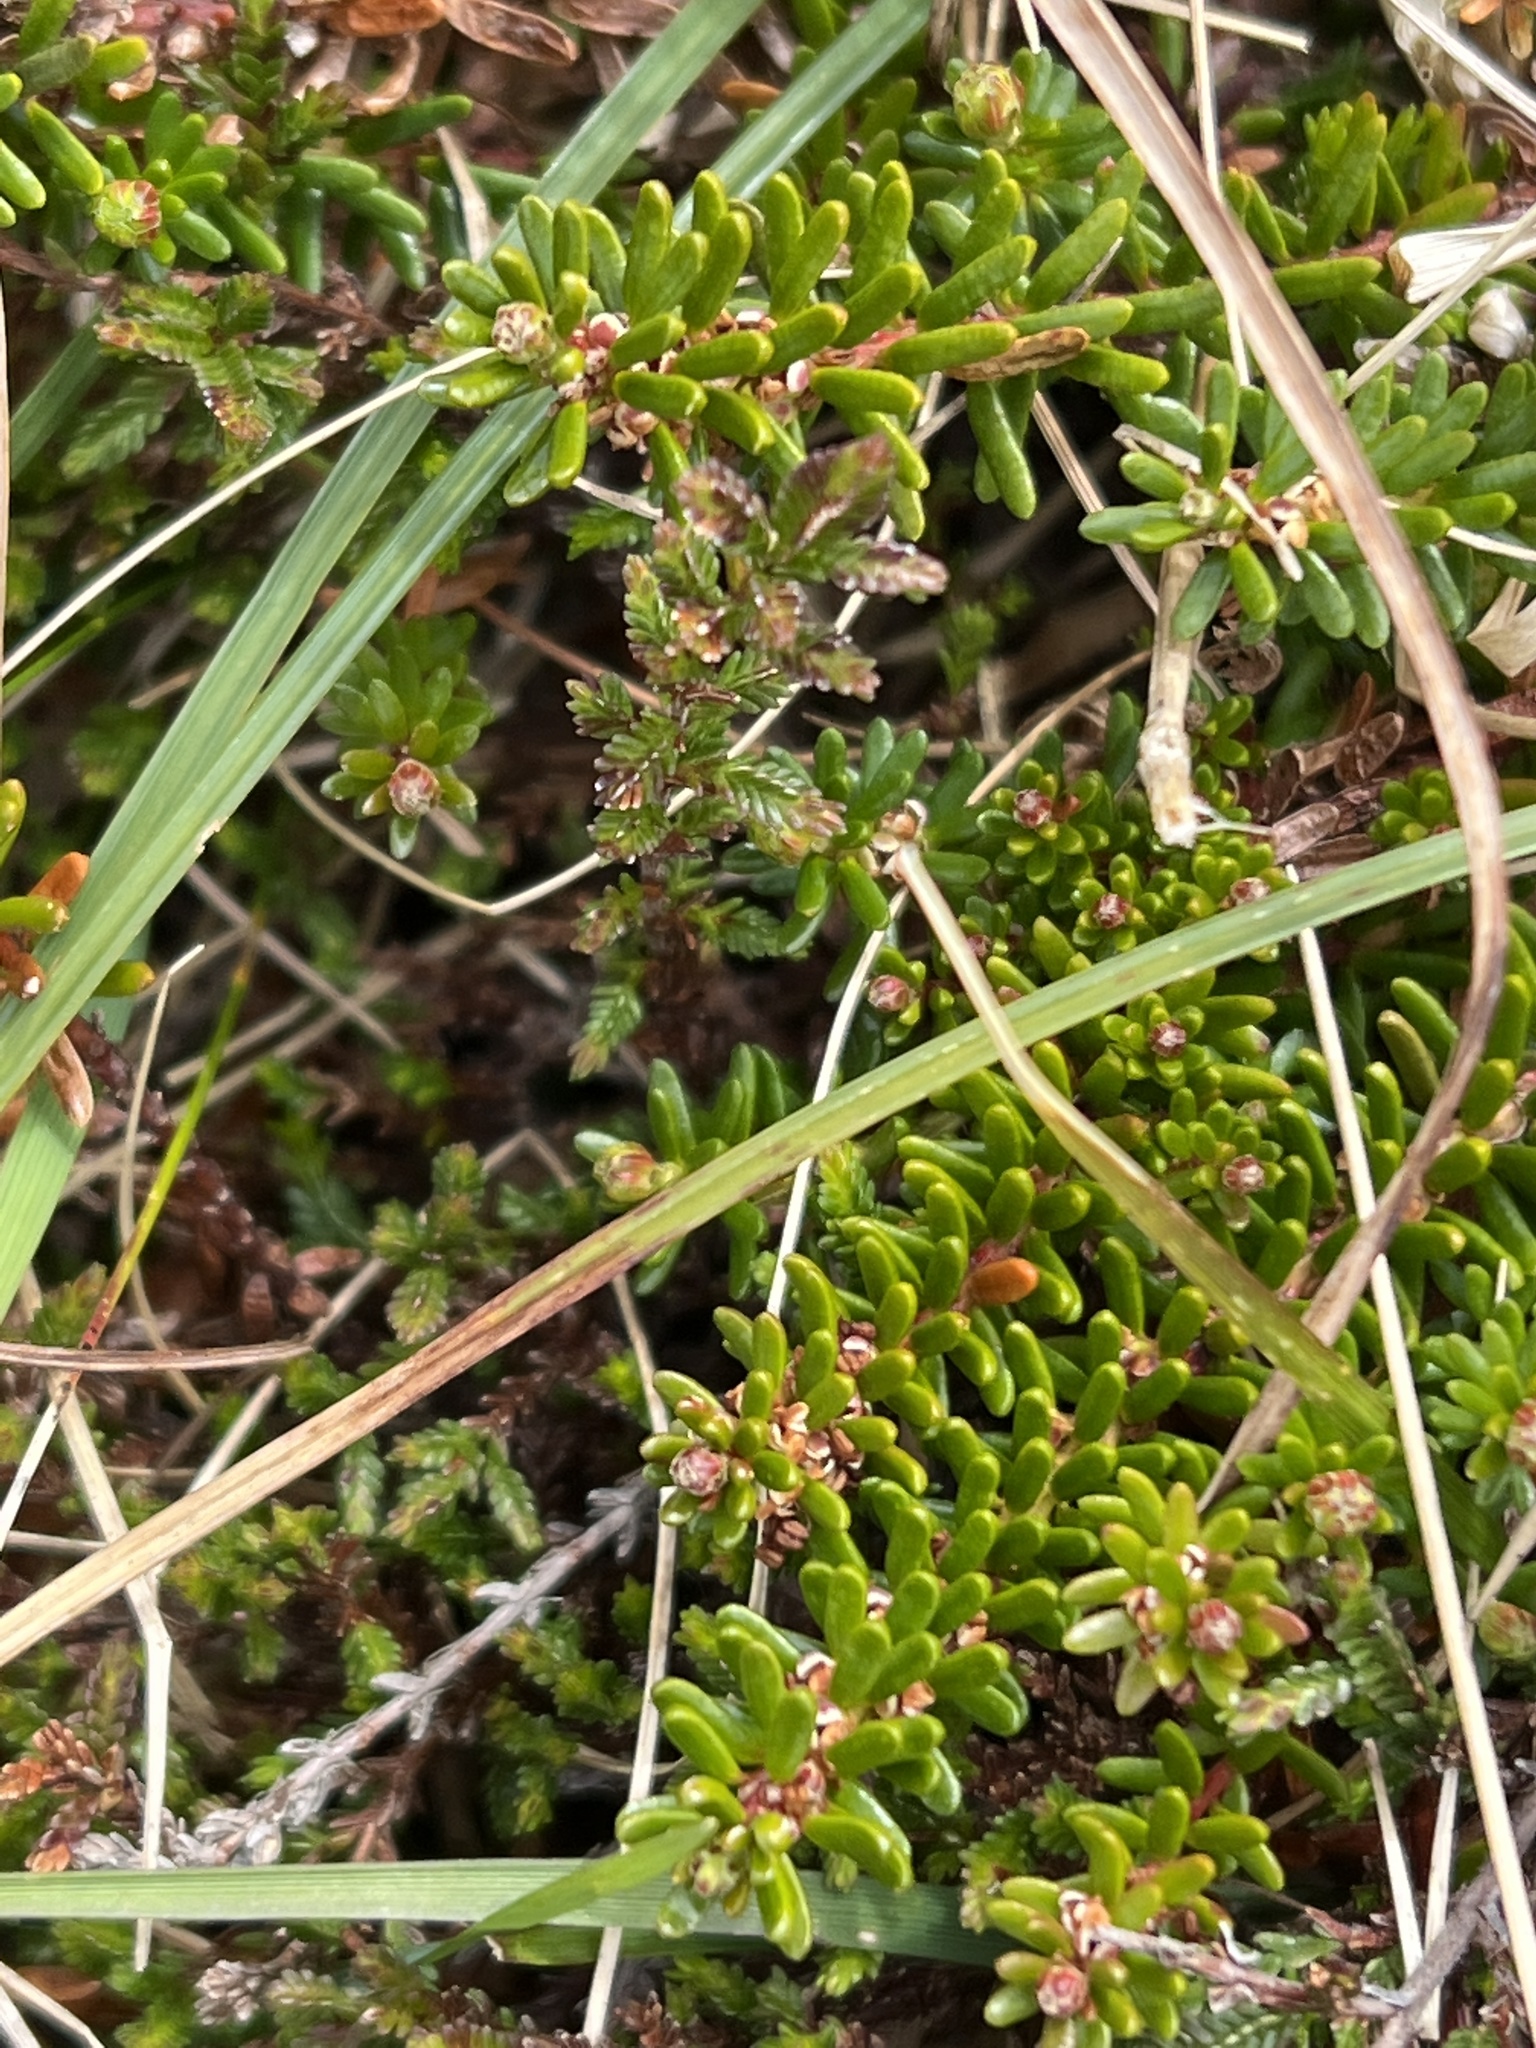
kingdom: Plantae
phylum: Tracheophyta
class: Magnoliopsida
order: Ericales
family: Ericaceae
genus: Empetrum
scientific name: Empetrum nigrum
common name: Black crowberry
